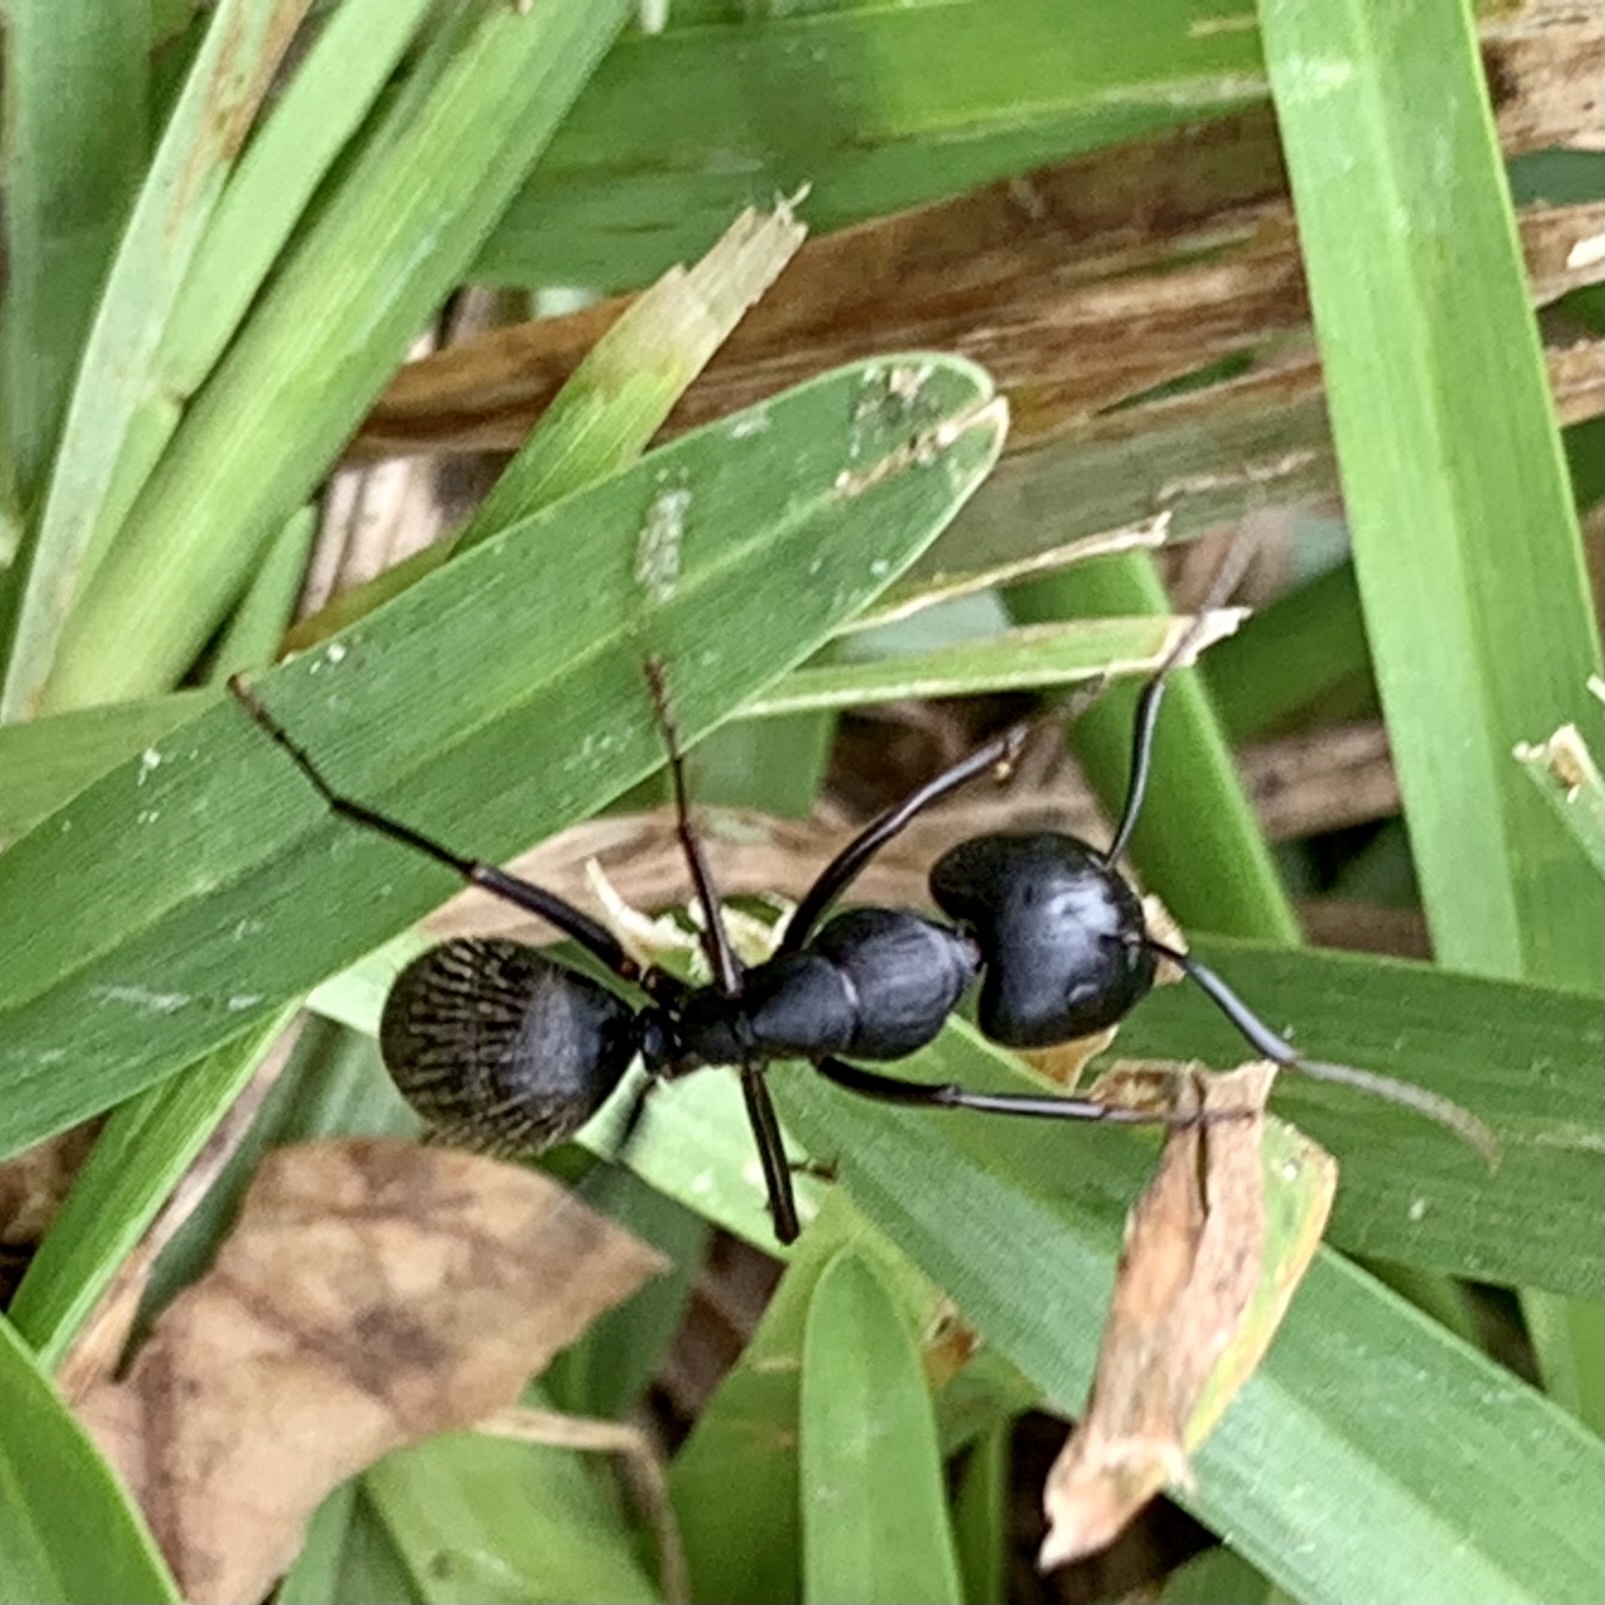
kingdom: Animalia
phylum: Arthropoda
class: Insecta
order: Hymenoptera
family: Formicidae
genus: Camponotus
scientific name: Camponotus pennsylvanicus
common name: Black carpenter ant
